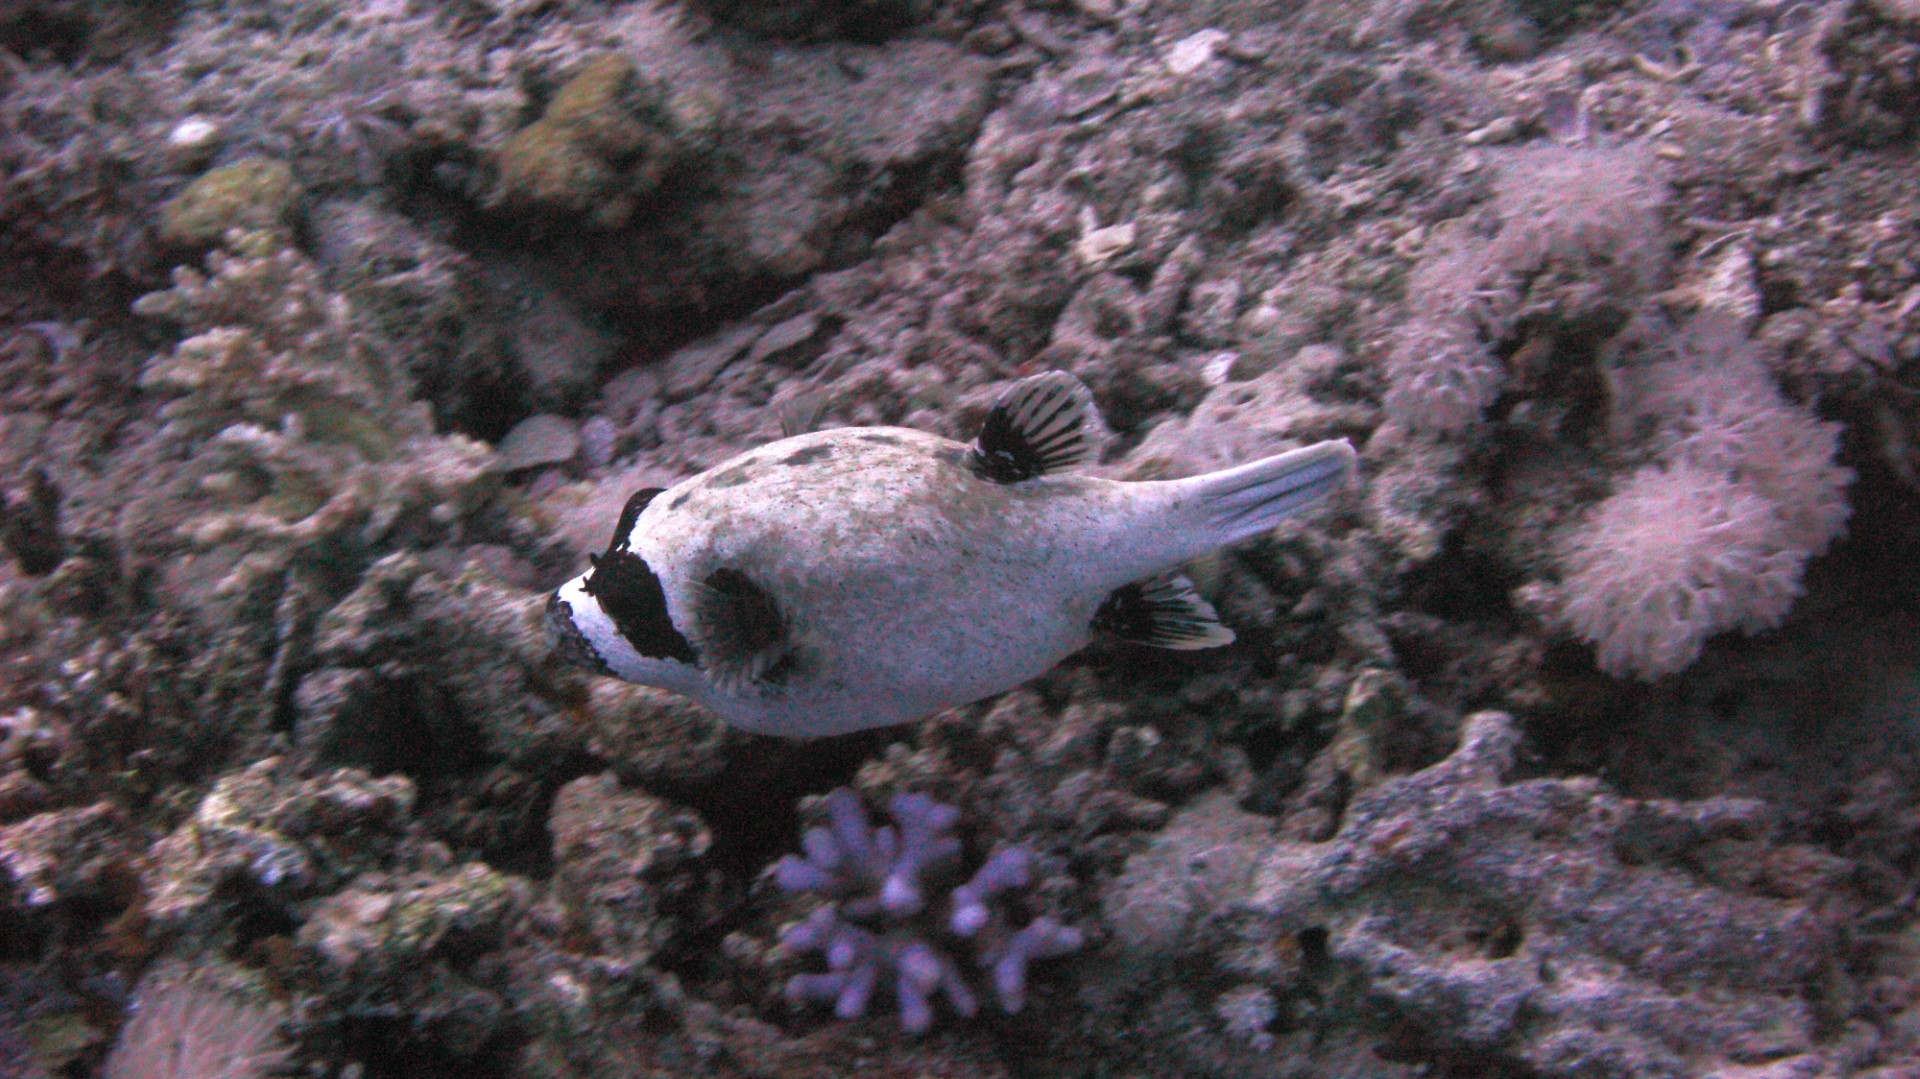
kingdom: Animalia
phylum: Chordata
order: Tetraodontiformes
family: Tetraodontidae
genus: Arothron
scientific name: Arothron diadematus
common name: Masked puffer
